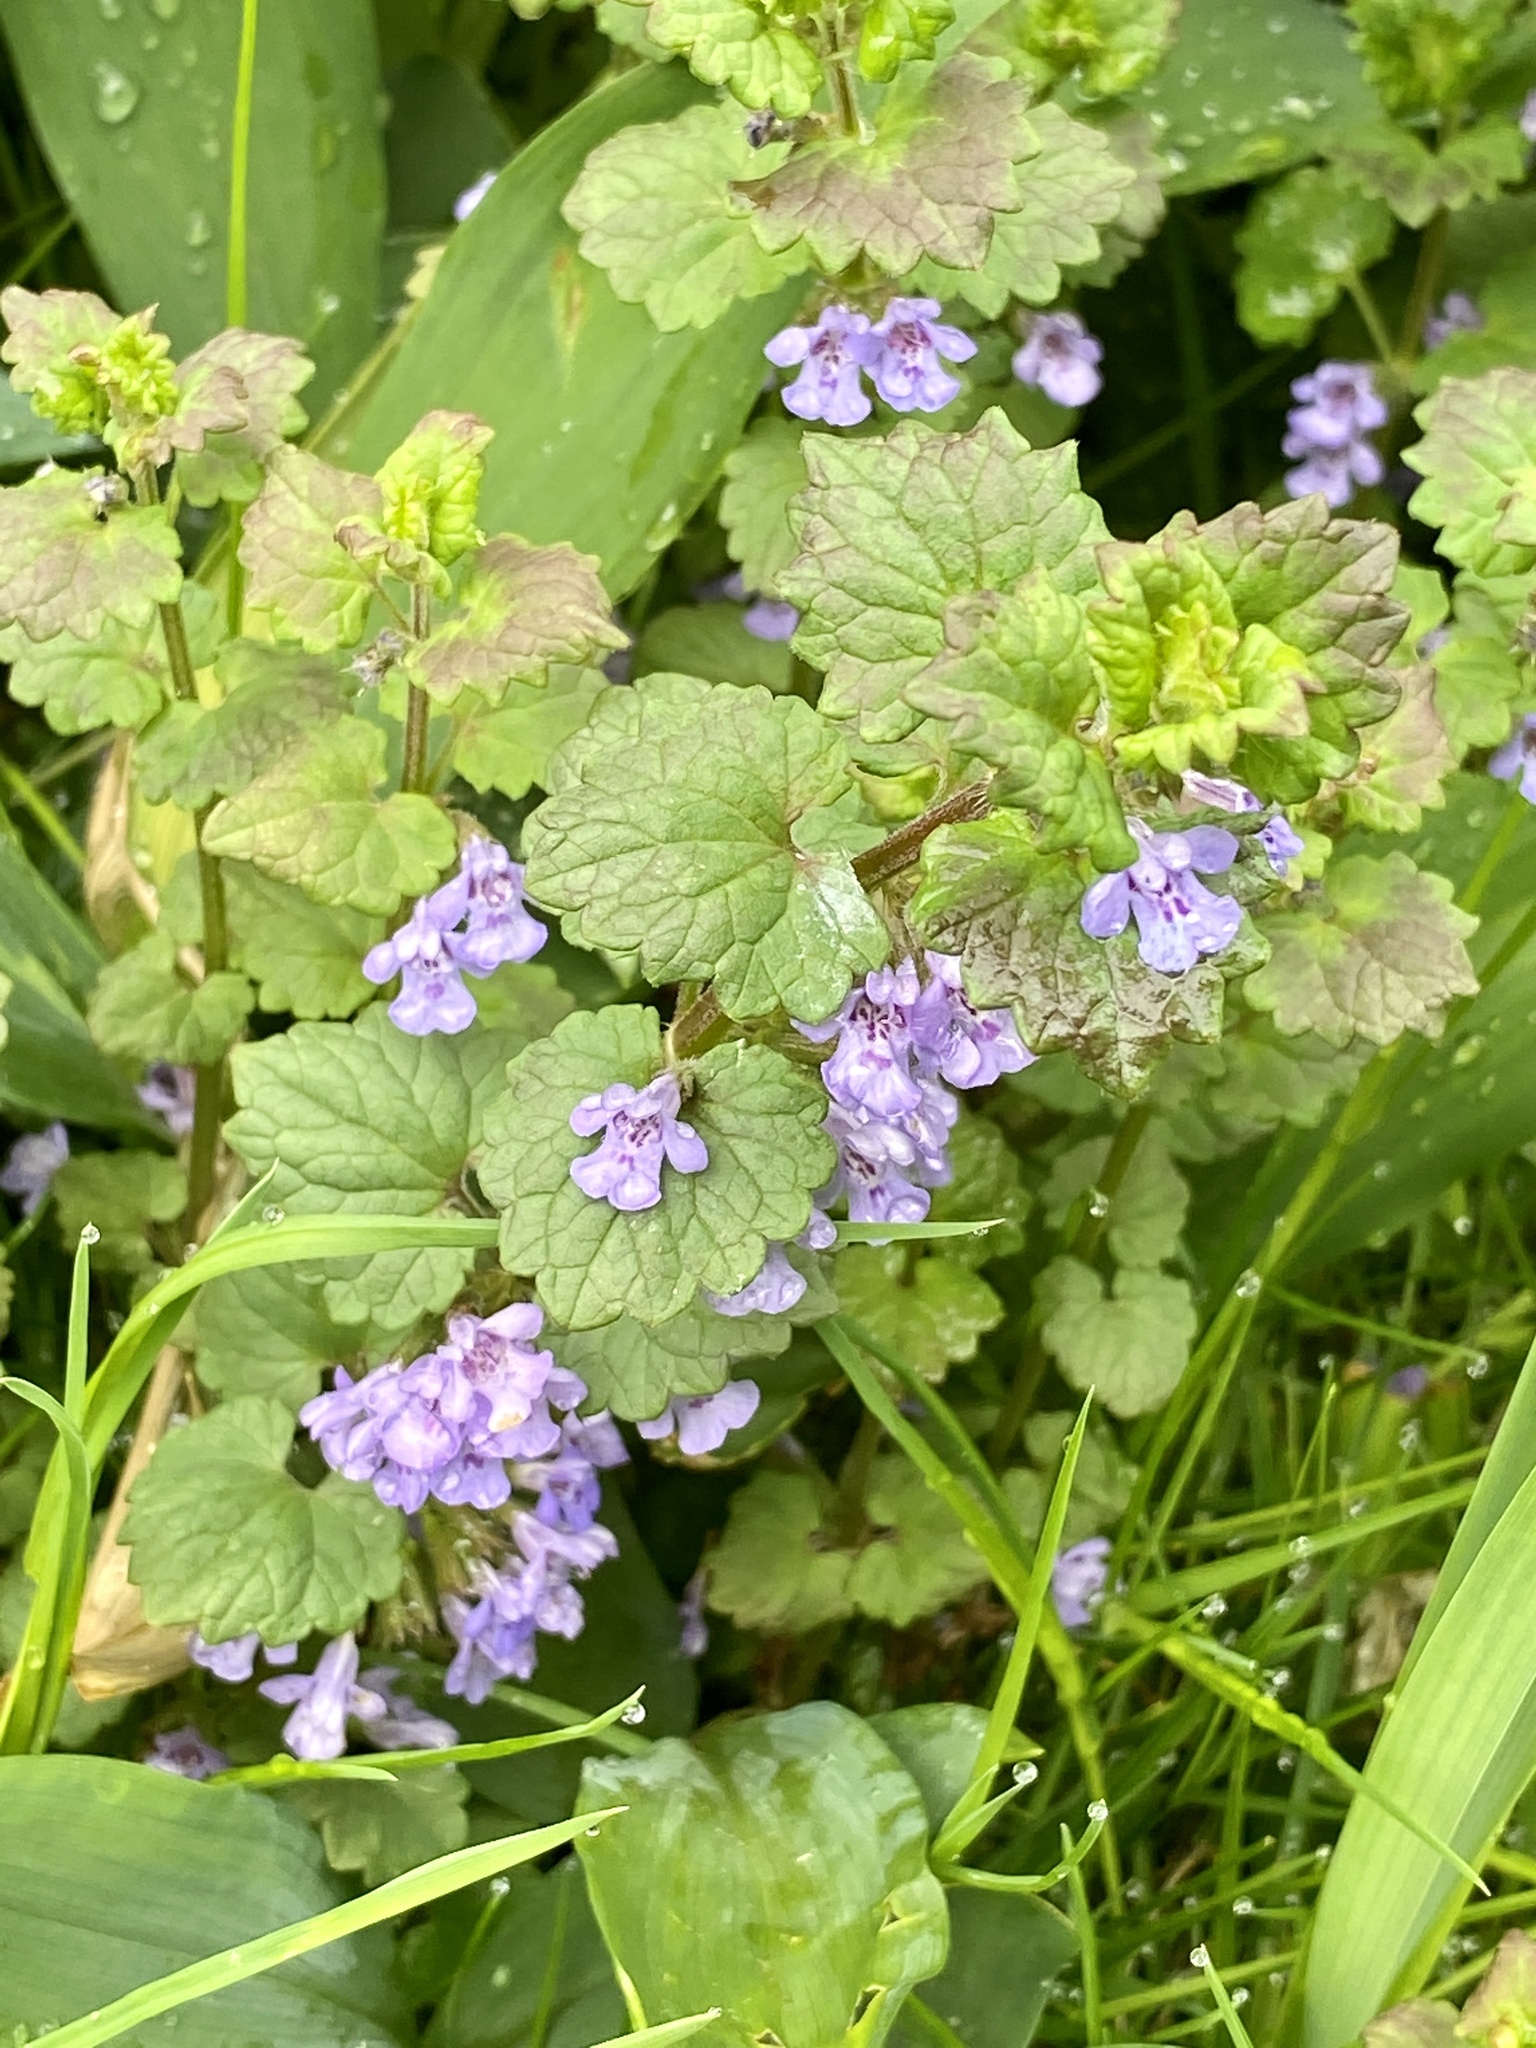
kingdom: Plantae
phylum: Tracheophyta
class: Magnoliopsida
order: Lamiales
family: Lamiaceae
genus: Glechoma
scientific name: Glechoma hederacea
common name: Ground ivy
